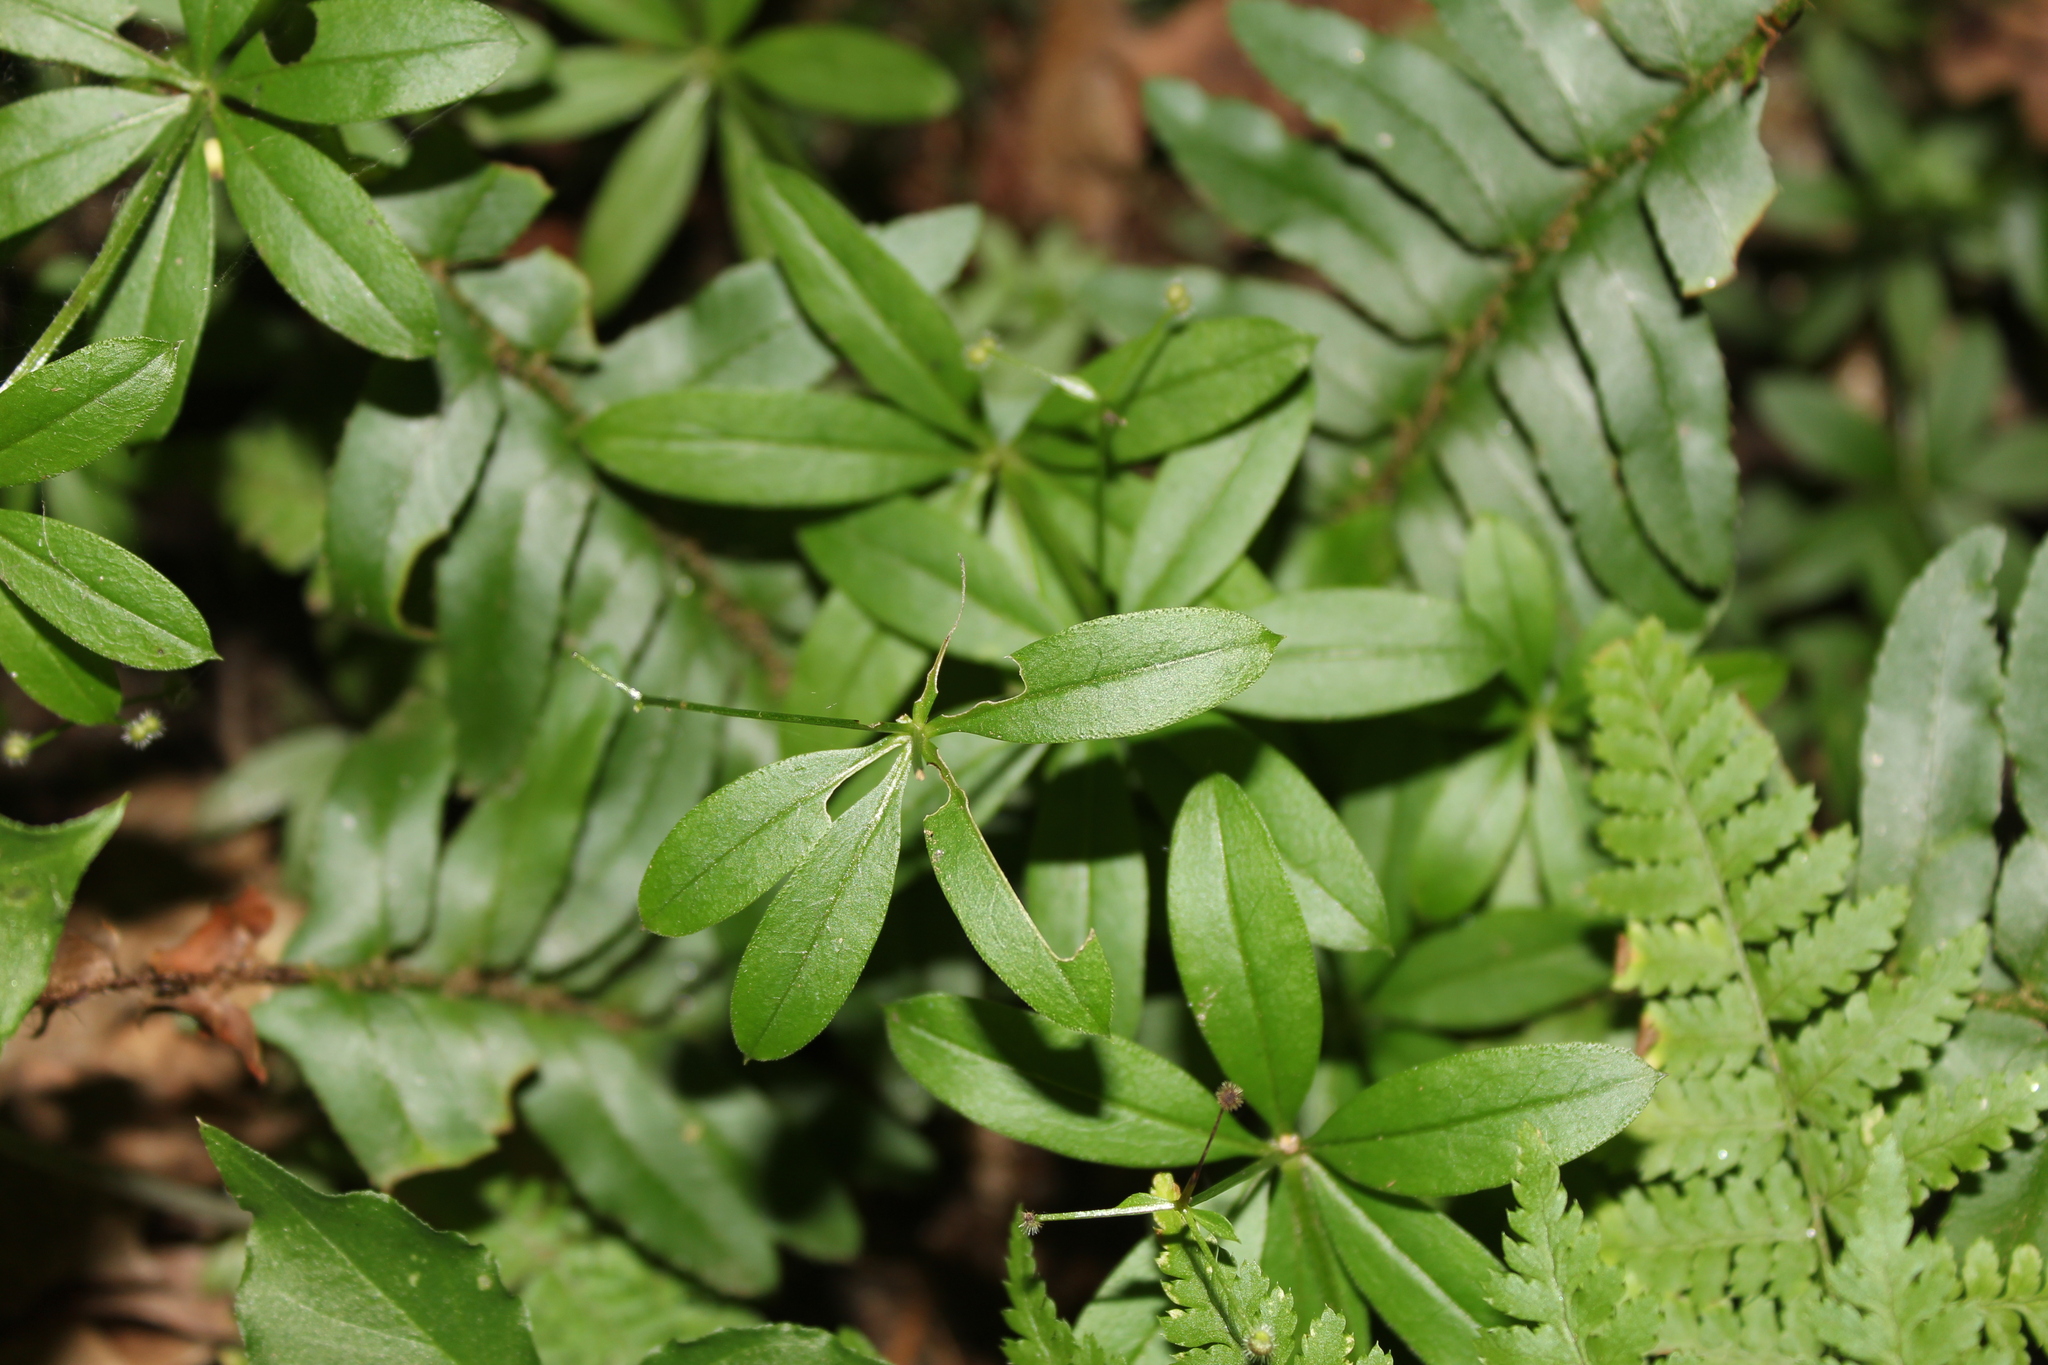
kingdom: Plantae
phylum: Tracheophyta
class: Magnoliopsida
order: Gentianales
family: Rubiaceae
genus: Galium
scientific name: Galium triflorum
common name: Fragrant bedstraw
